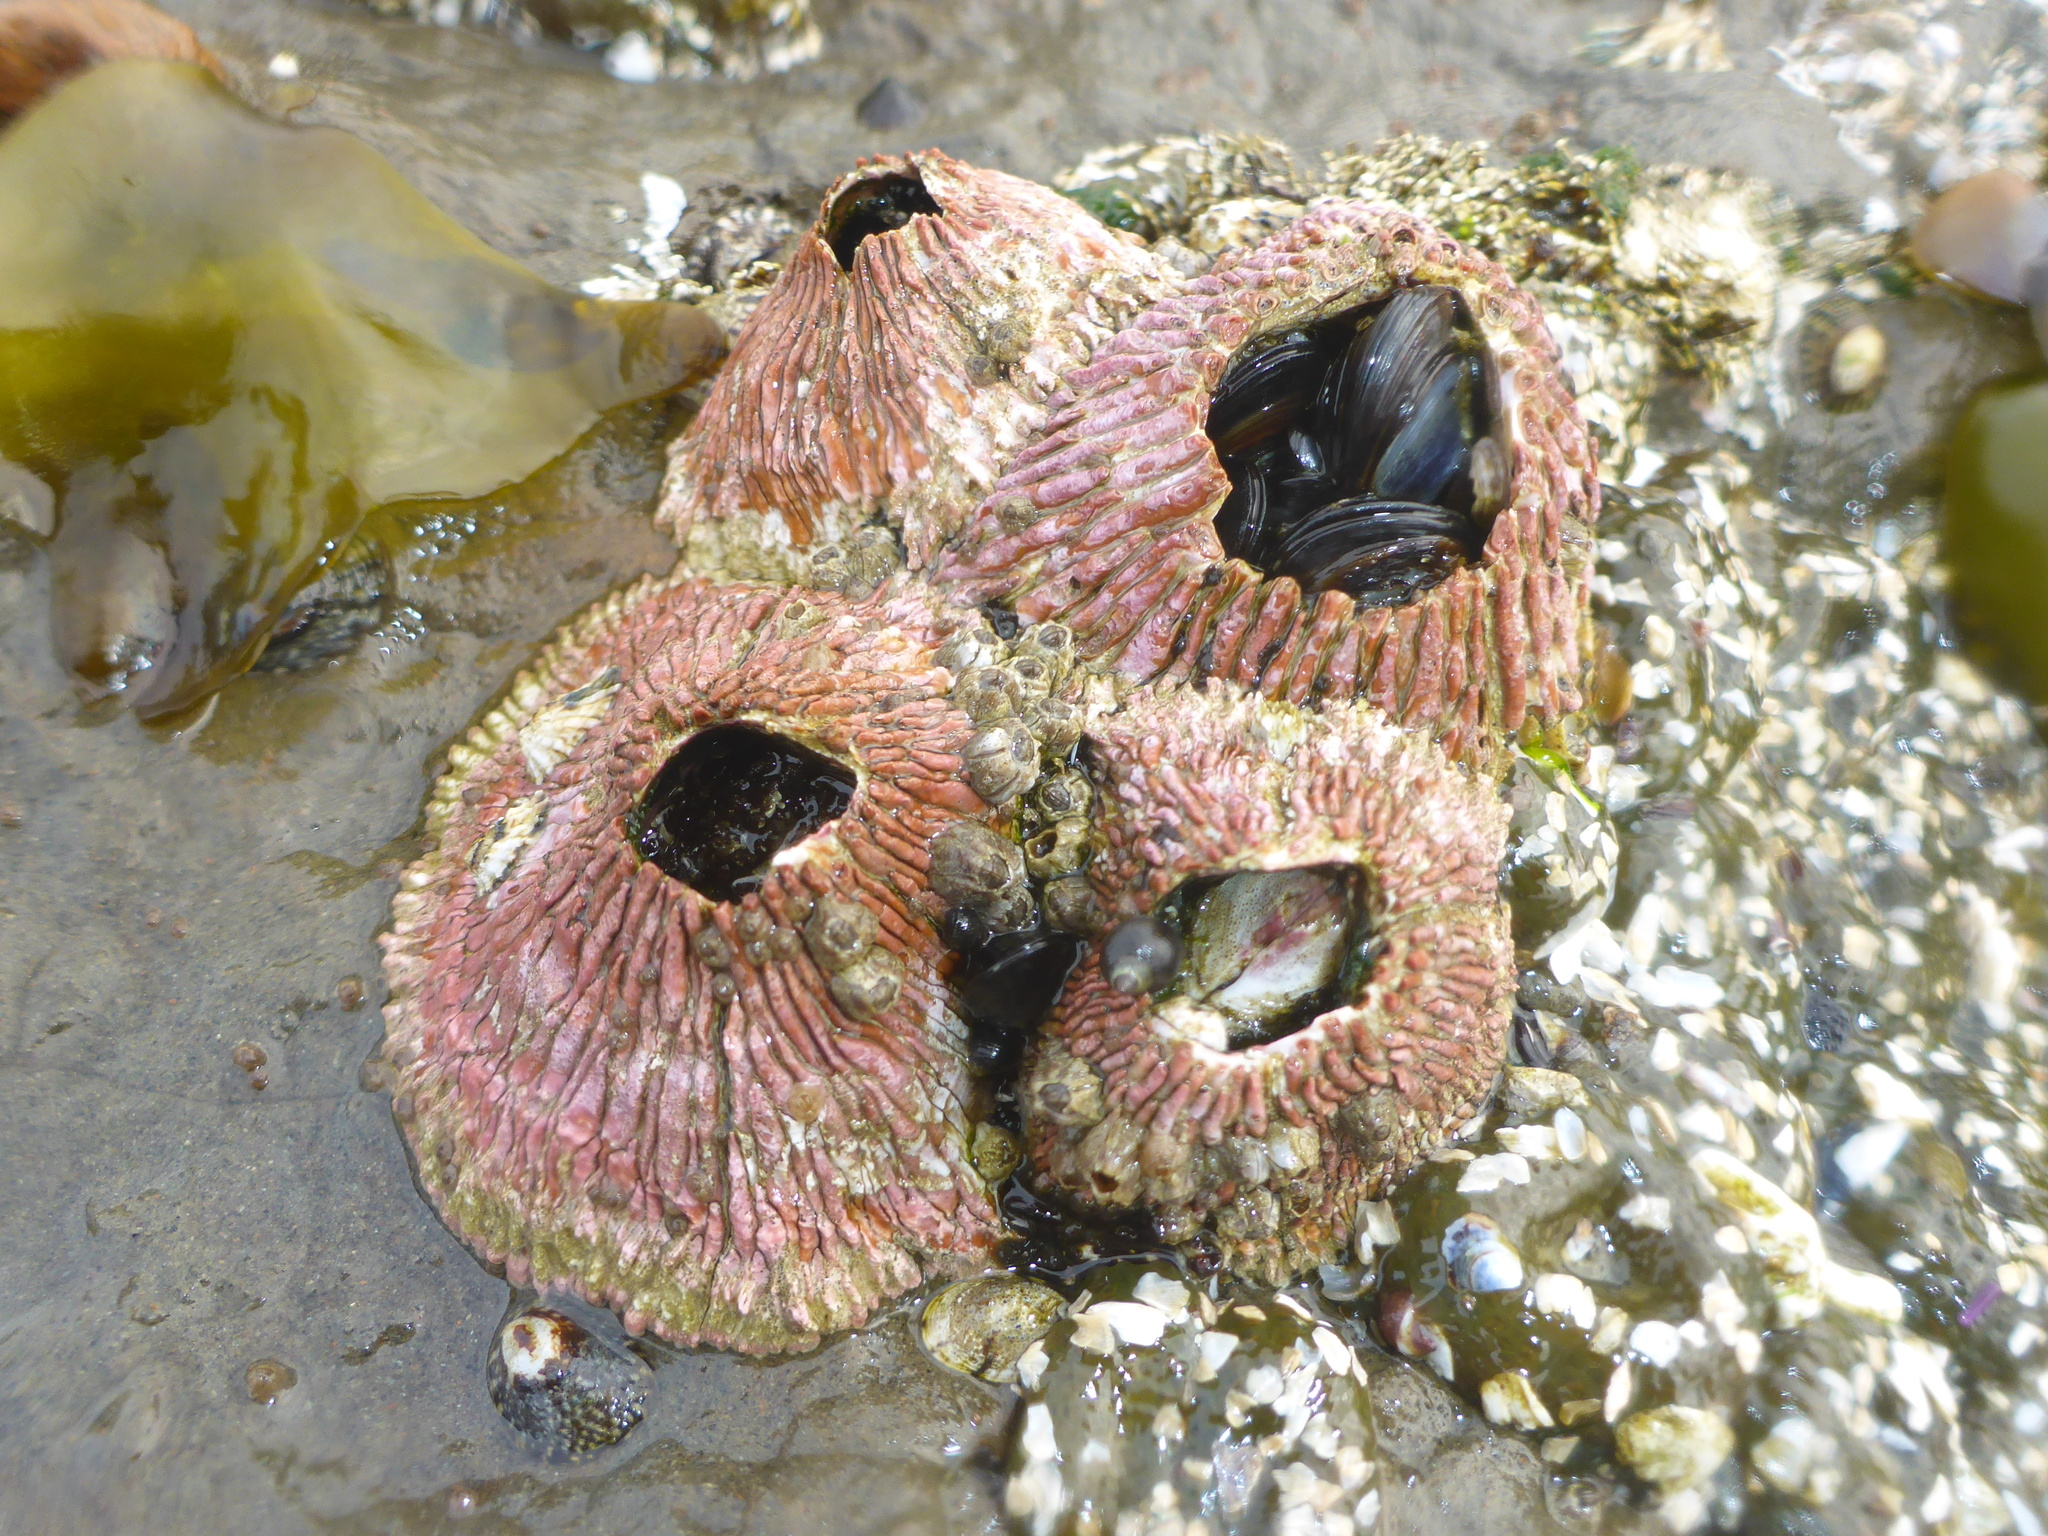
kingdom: Animalia
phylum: Arthropoda
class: Maxillopoda
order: Sessilia
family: Tetraclitidae
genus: Tetraclita
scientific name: Tetraclita rubescens
